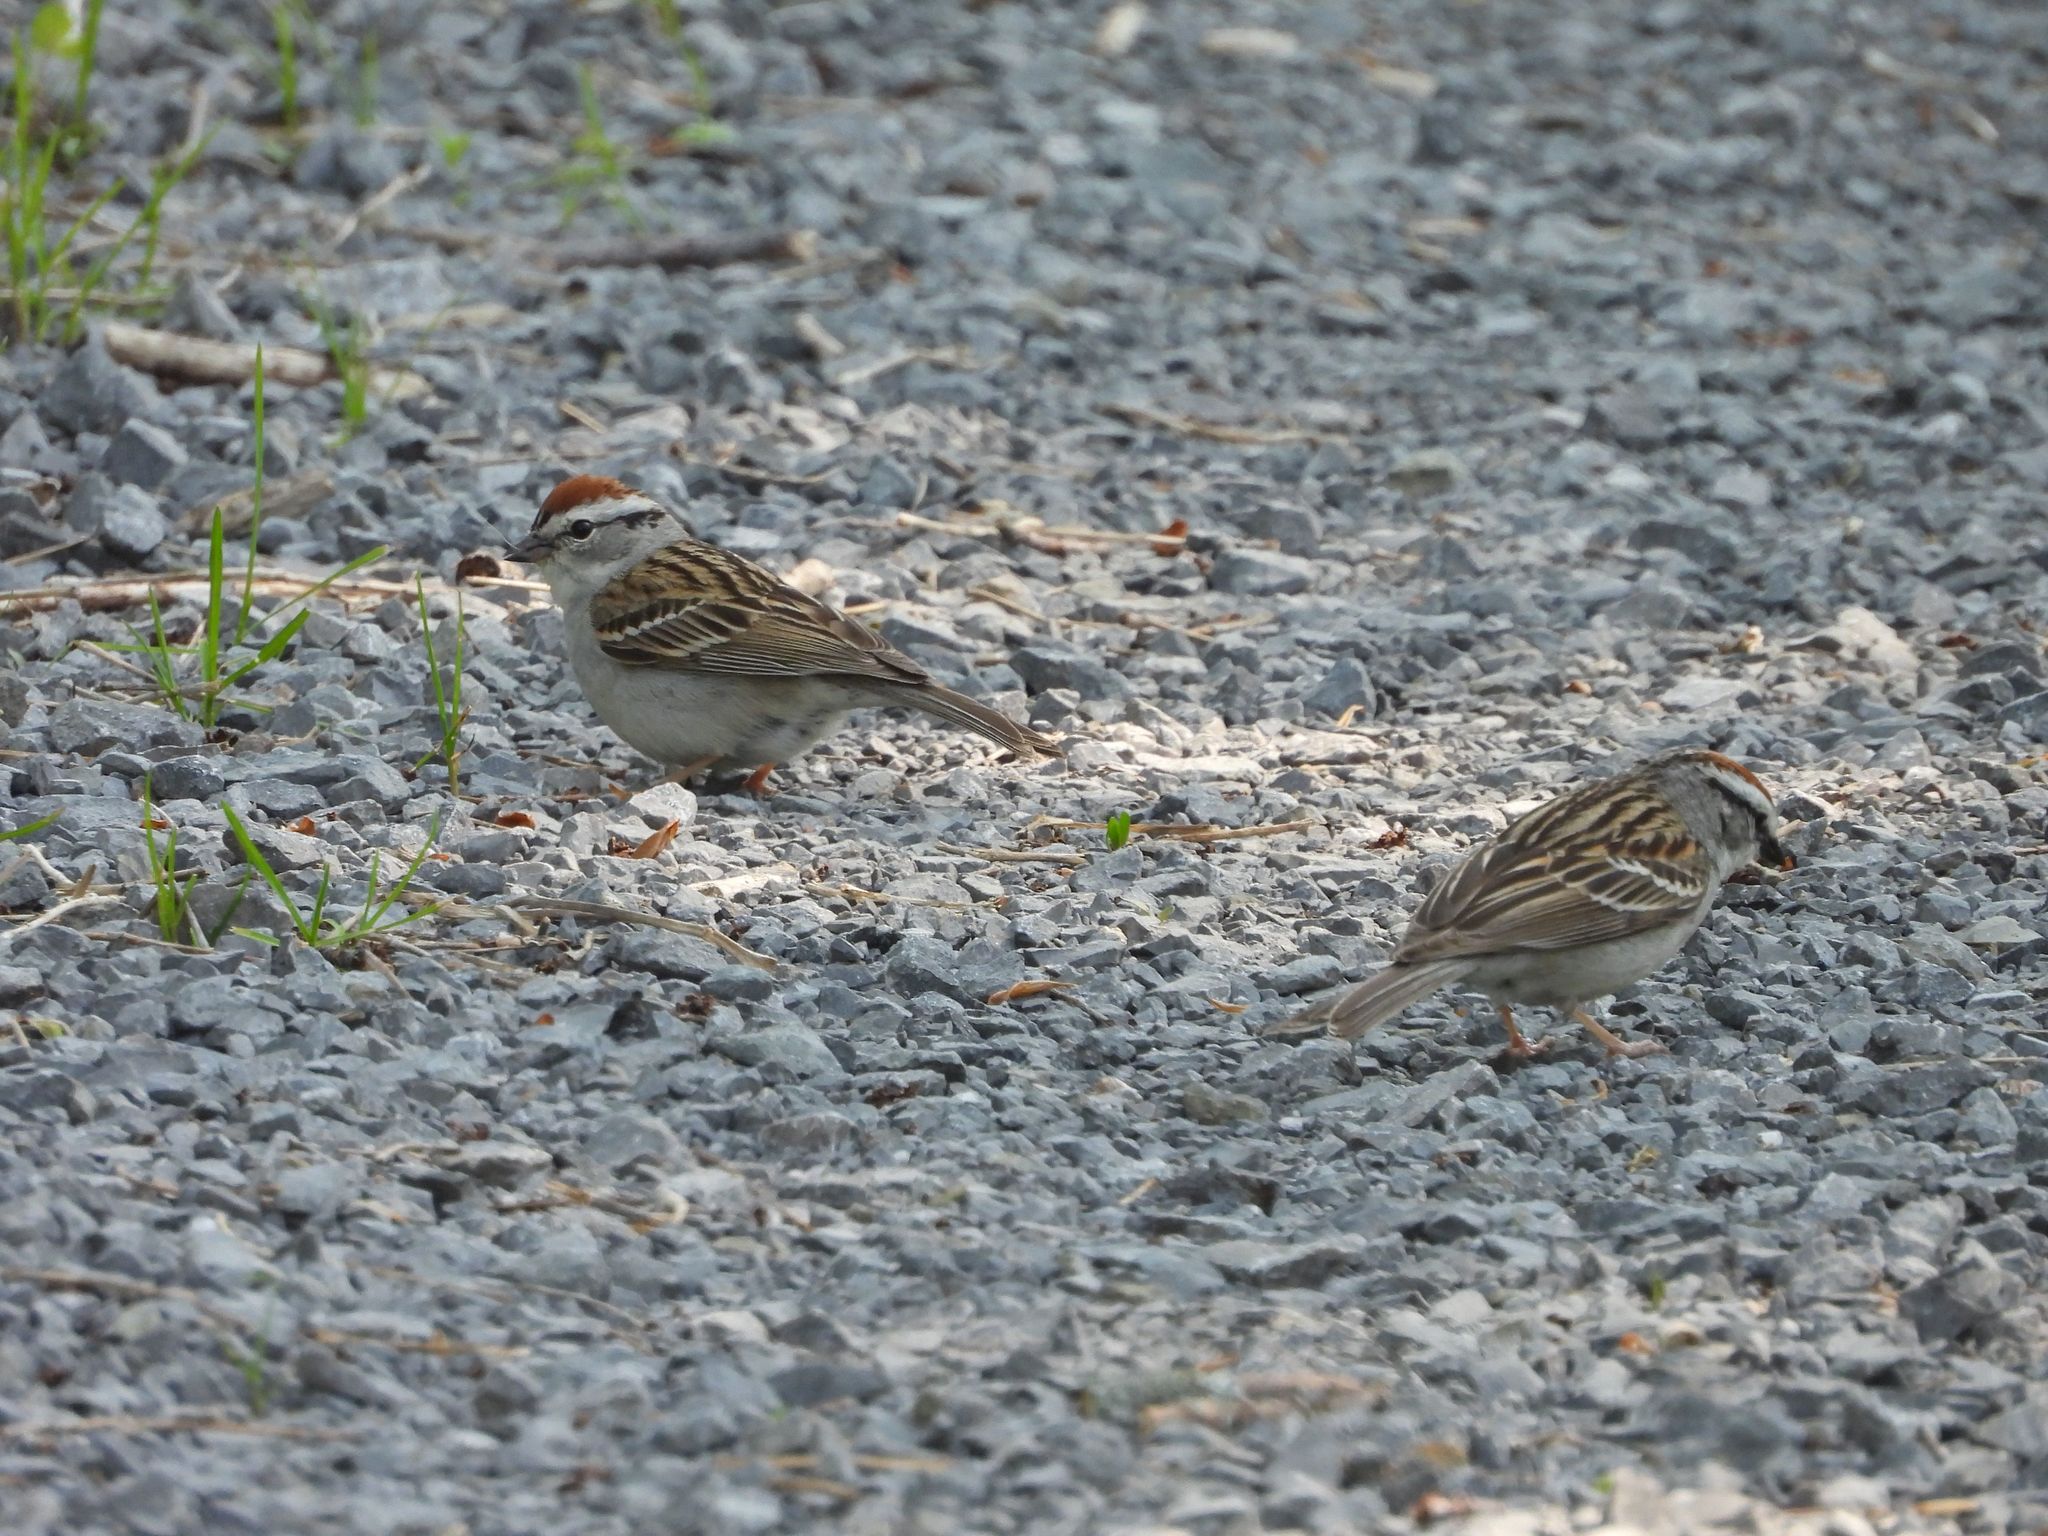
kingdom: Animalia
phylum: Chordata
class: Aves
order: Passeriformes
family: Passerellidae
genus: Spizella
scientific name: Spizella passerina
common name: Chipping sparrow
